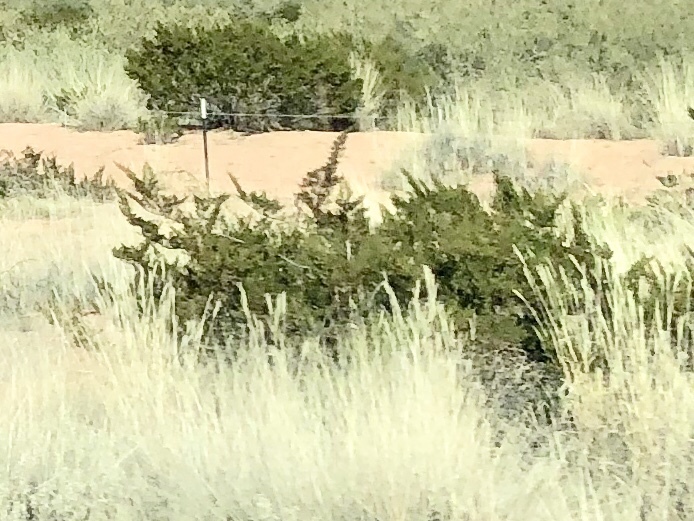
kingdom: Plantae
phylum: Tracheophyta
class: Magnoliopsida
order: Zygophyllales
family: Zygophyllaceae
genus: Larrea
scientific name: Larrea tridentata
